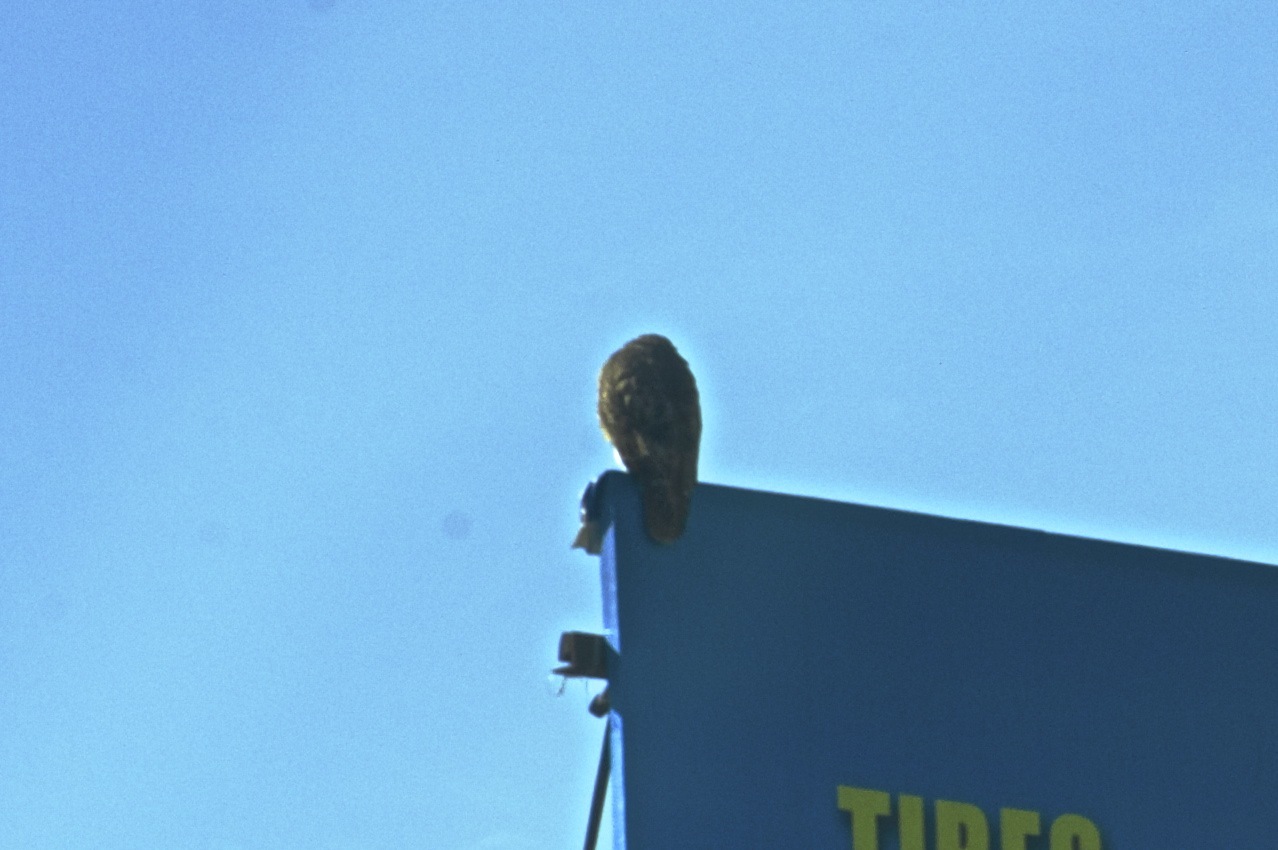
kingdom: Animalia
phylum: Chordata
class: Aves
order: Accipitriformes
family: Accipitridae
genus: Buteo
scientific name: Buteo jamaicensis
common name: Red-tailed hawk
